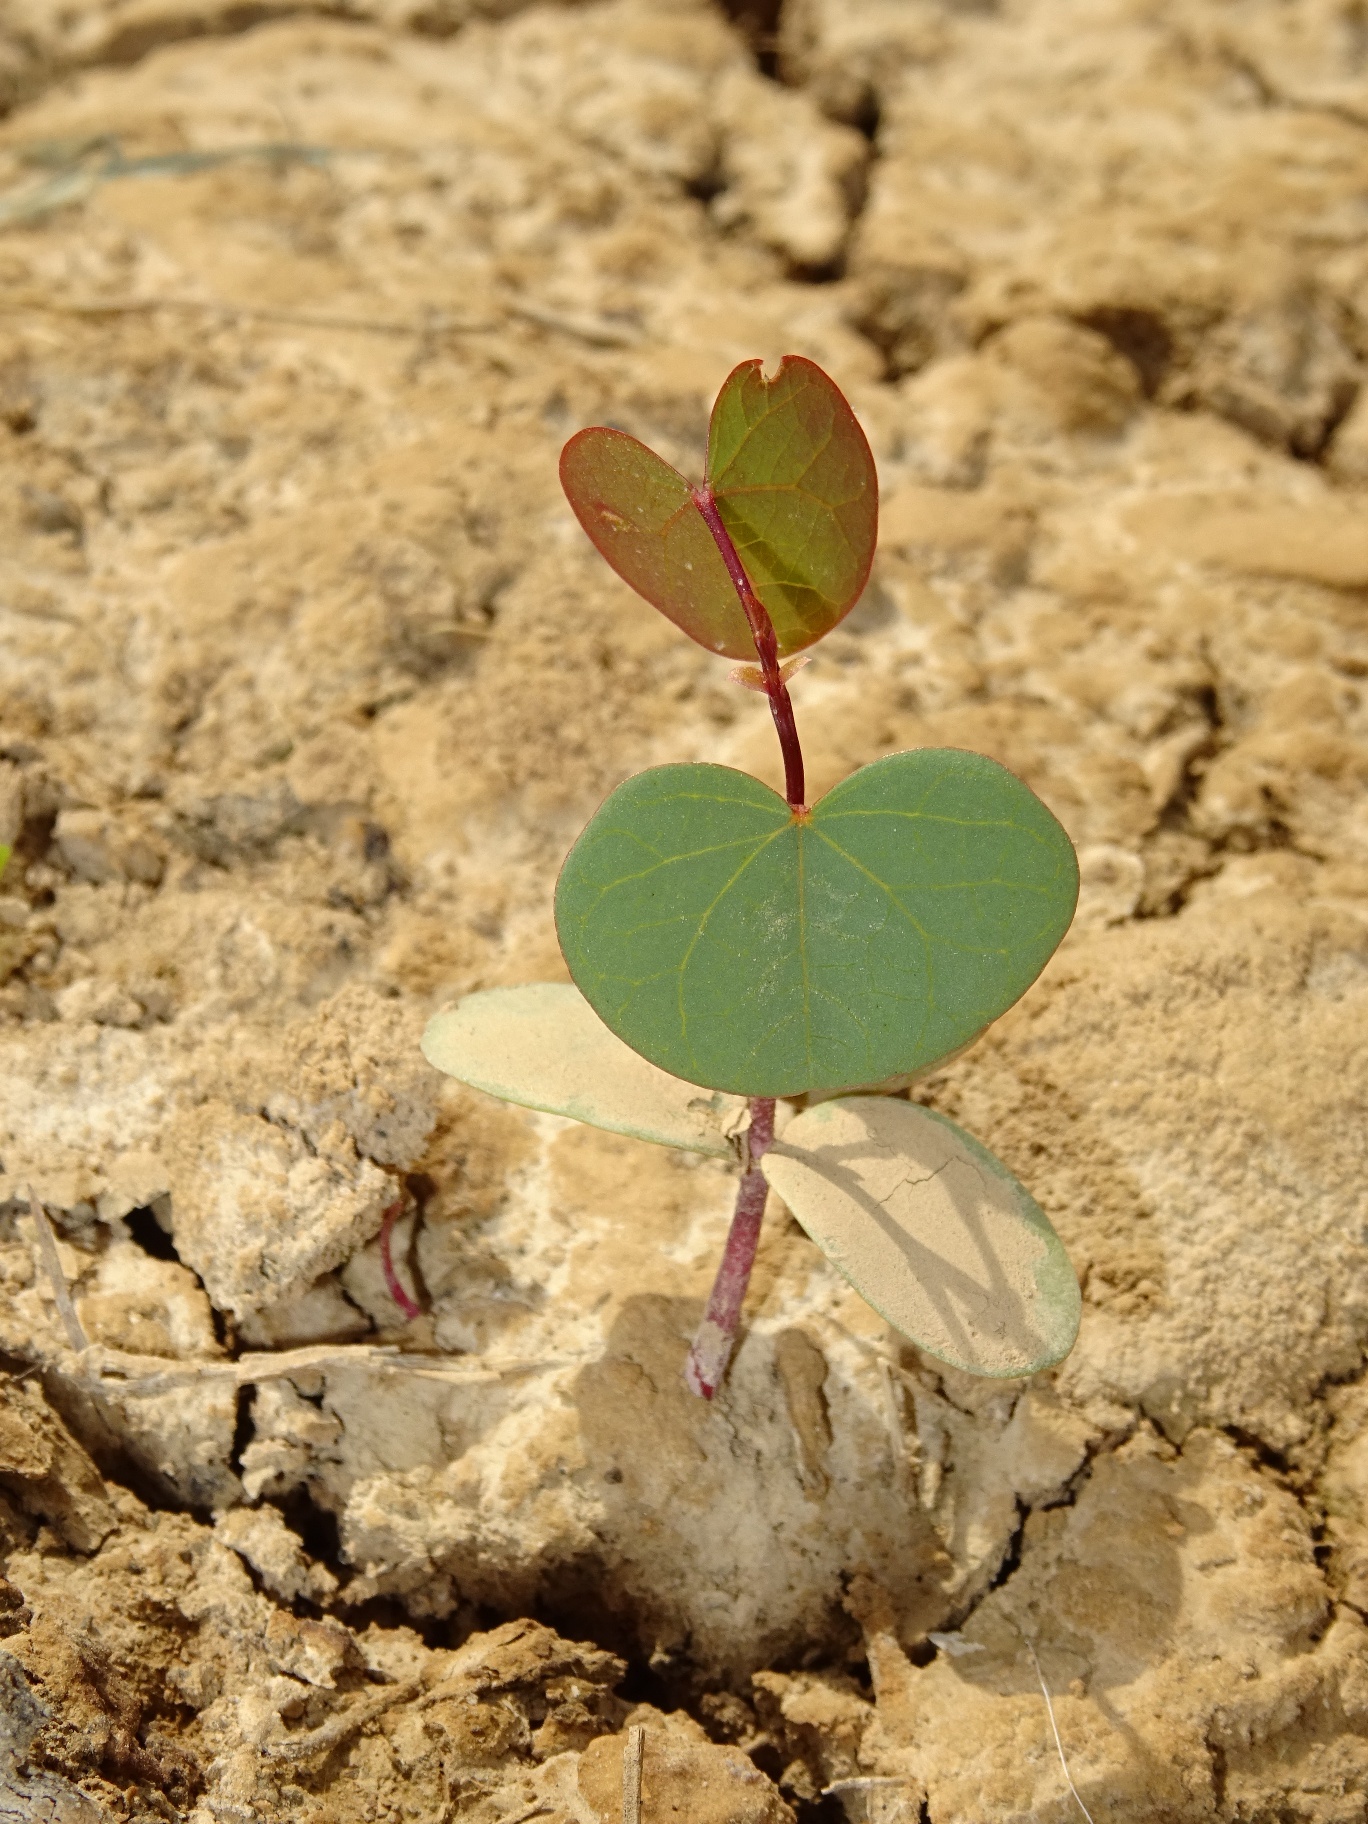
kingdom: Plantae
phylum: Tracheophyta
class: Magnoliopsida
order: Fabales
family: Fabaceae
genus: Cercis
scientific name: Cercis griffithii
